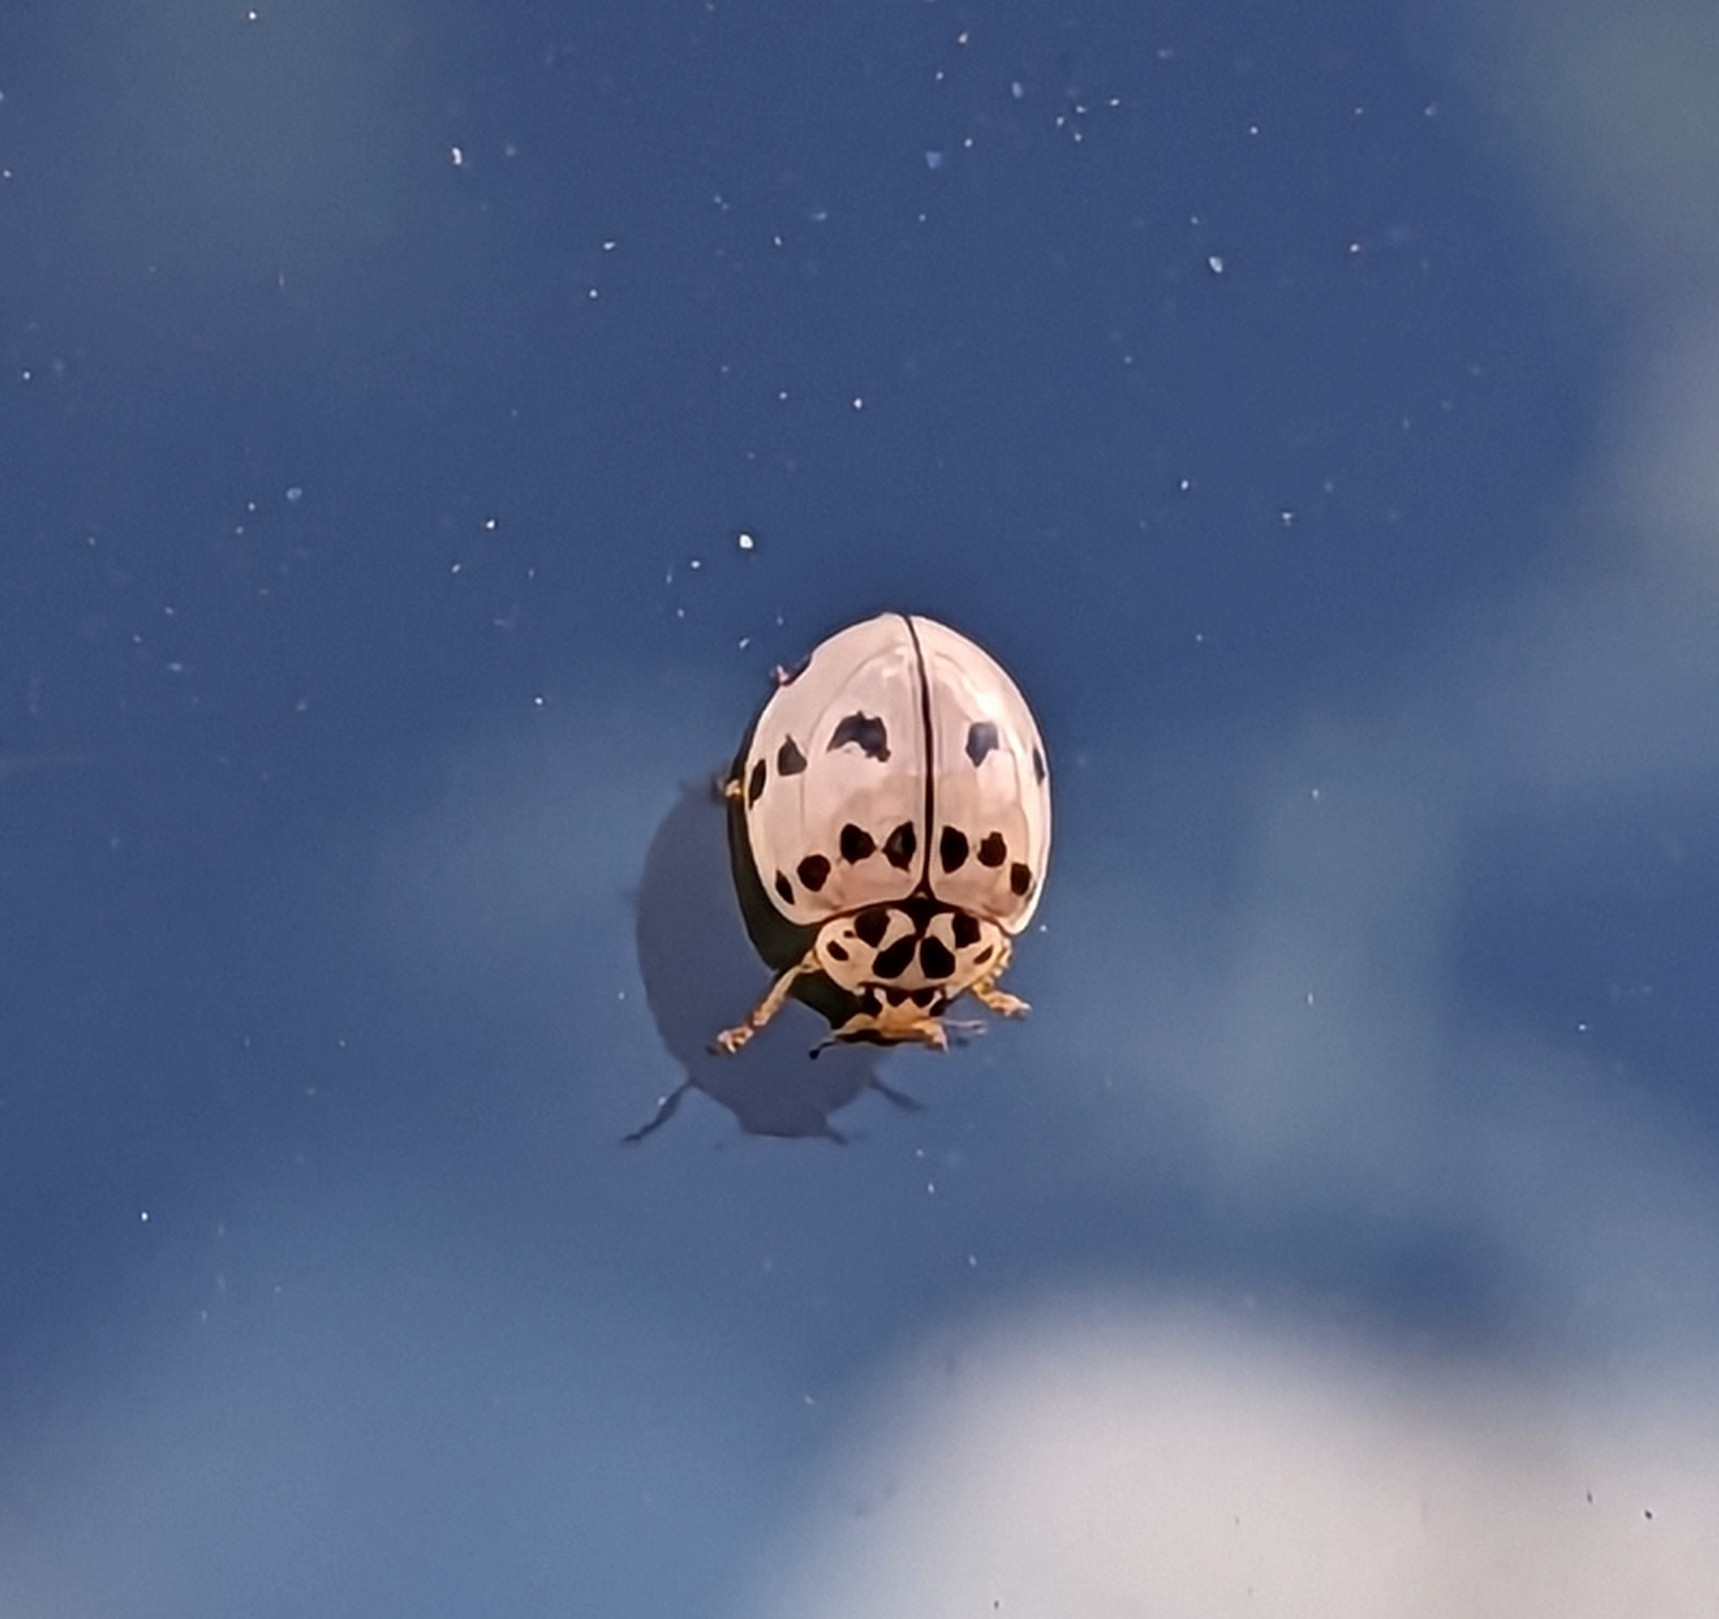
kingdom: Animalia
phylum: Arthropoda
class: Insecta
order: Coleoptera
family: Coccinellidae
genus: Olla
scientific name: Olla v-nigrum
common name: Ashy gray lady beetle
